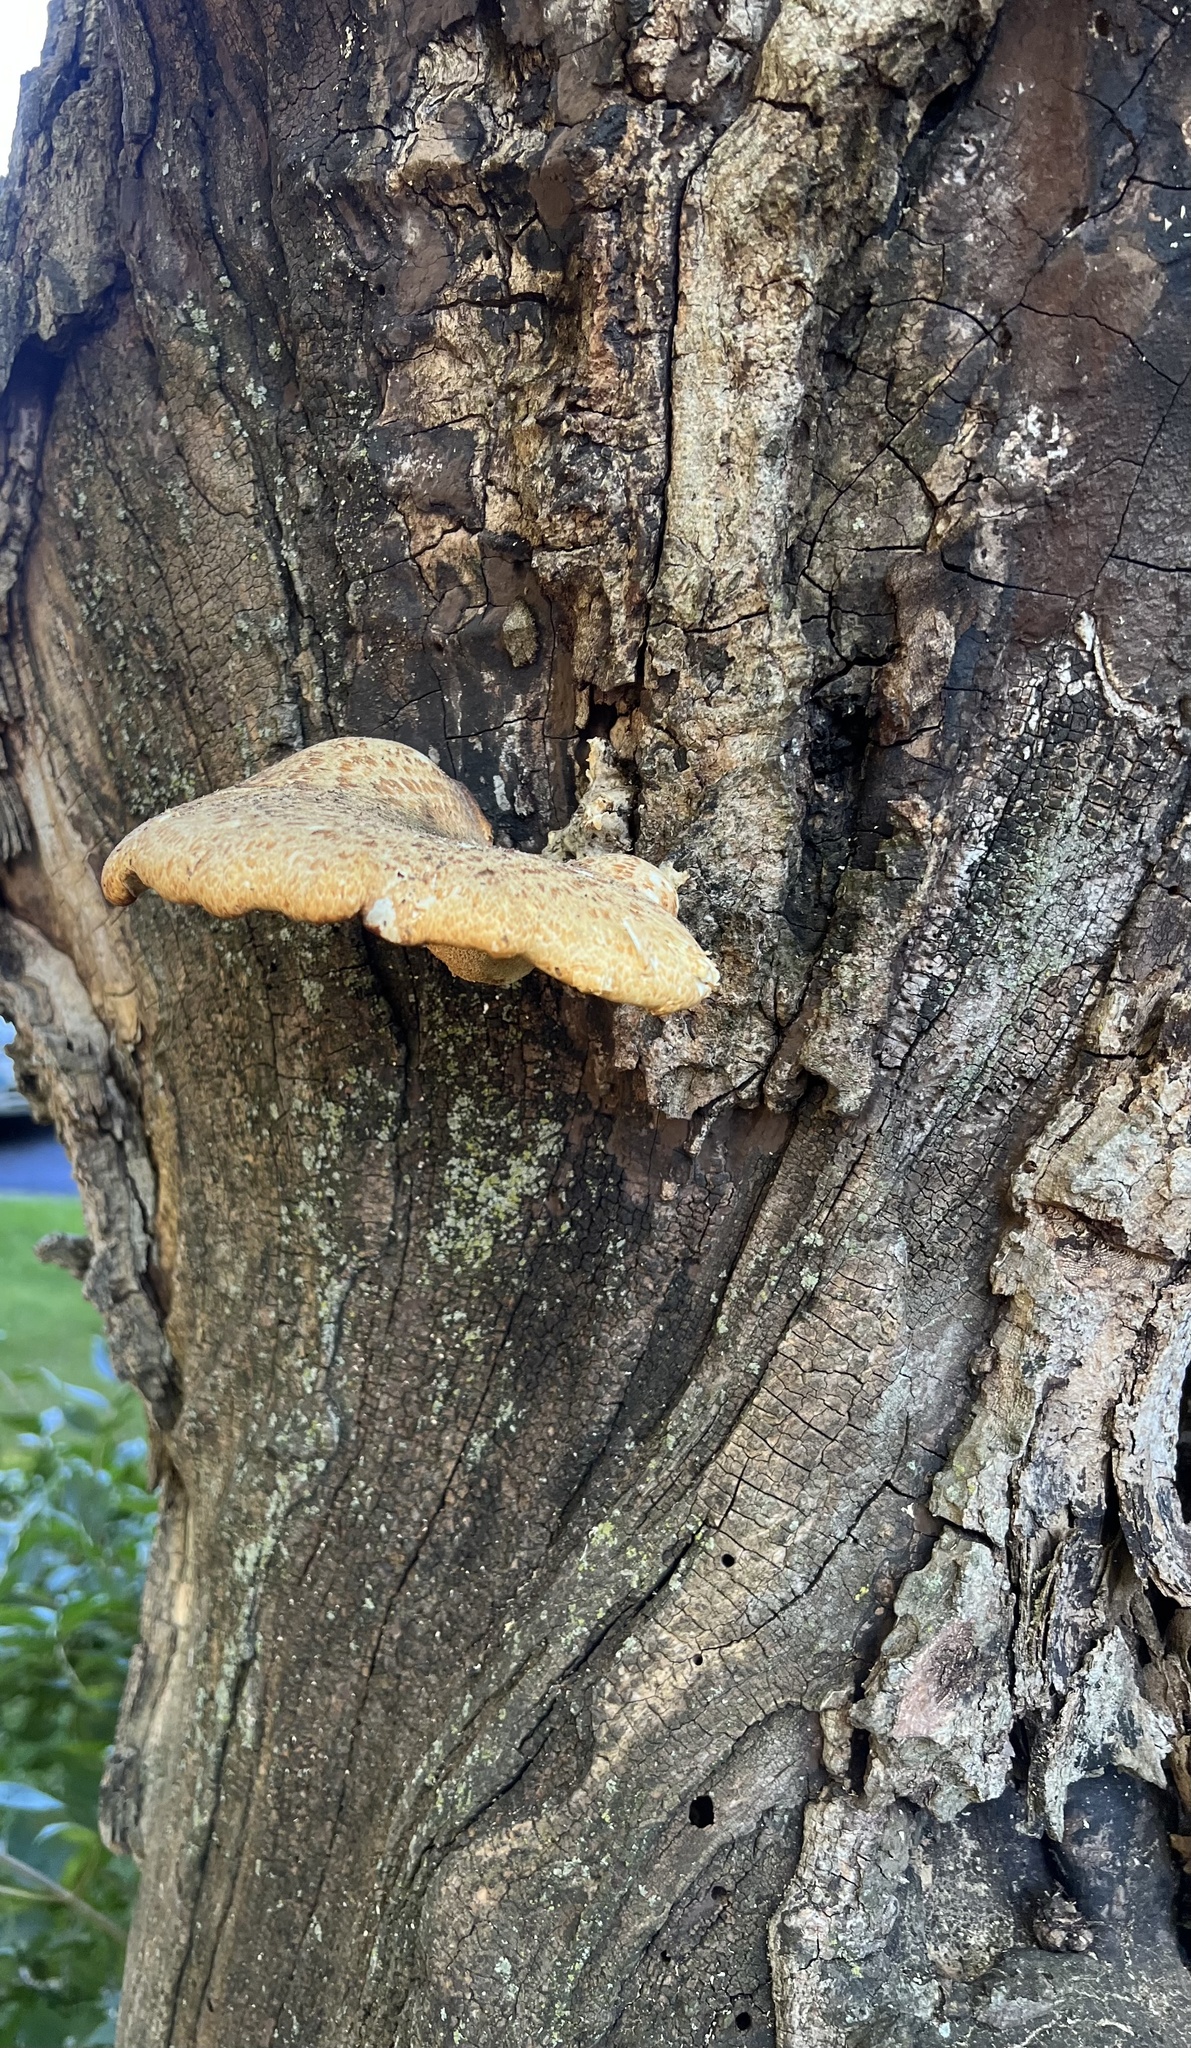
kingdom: Fungi
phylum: Basidiomycota
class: Agaricomycetes
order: Polyporales
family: Polyporaceae
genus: Cerioporus
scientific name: Cerioporus squamosus
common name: Dryad's saddle
